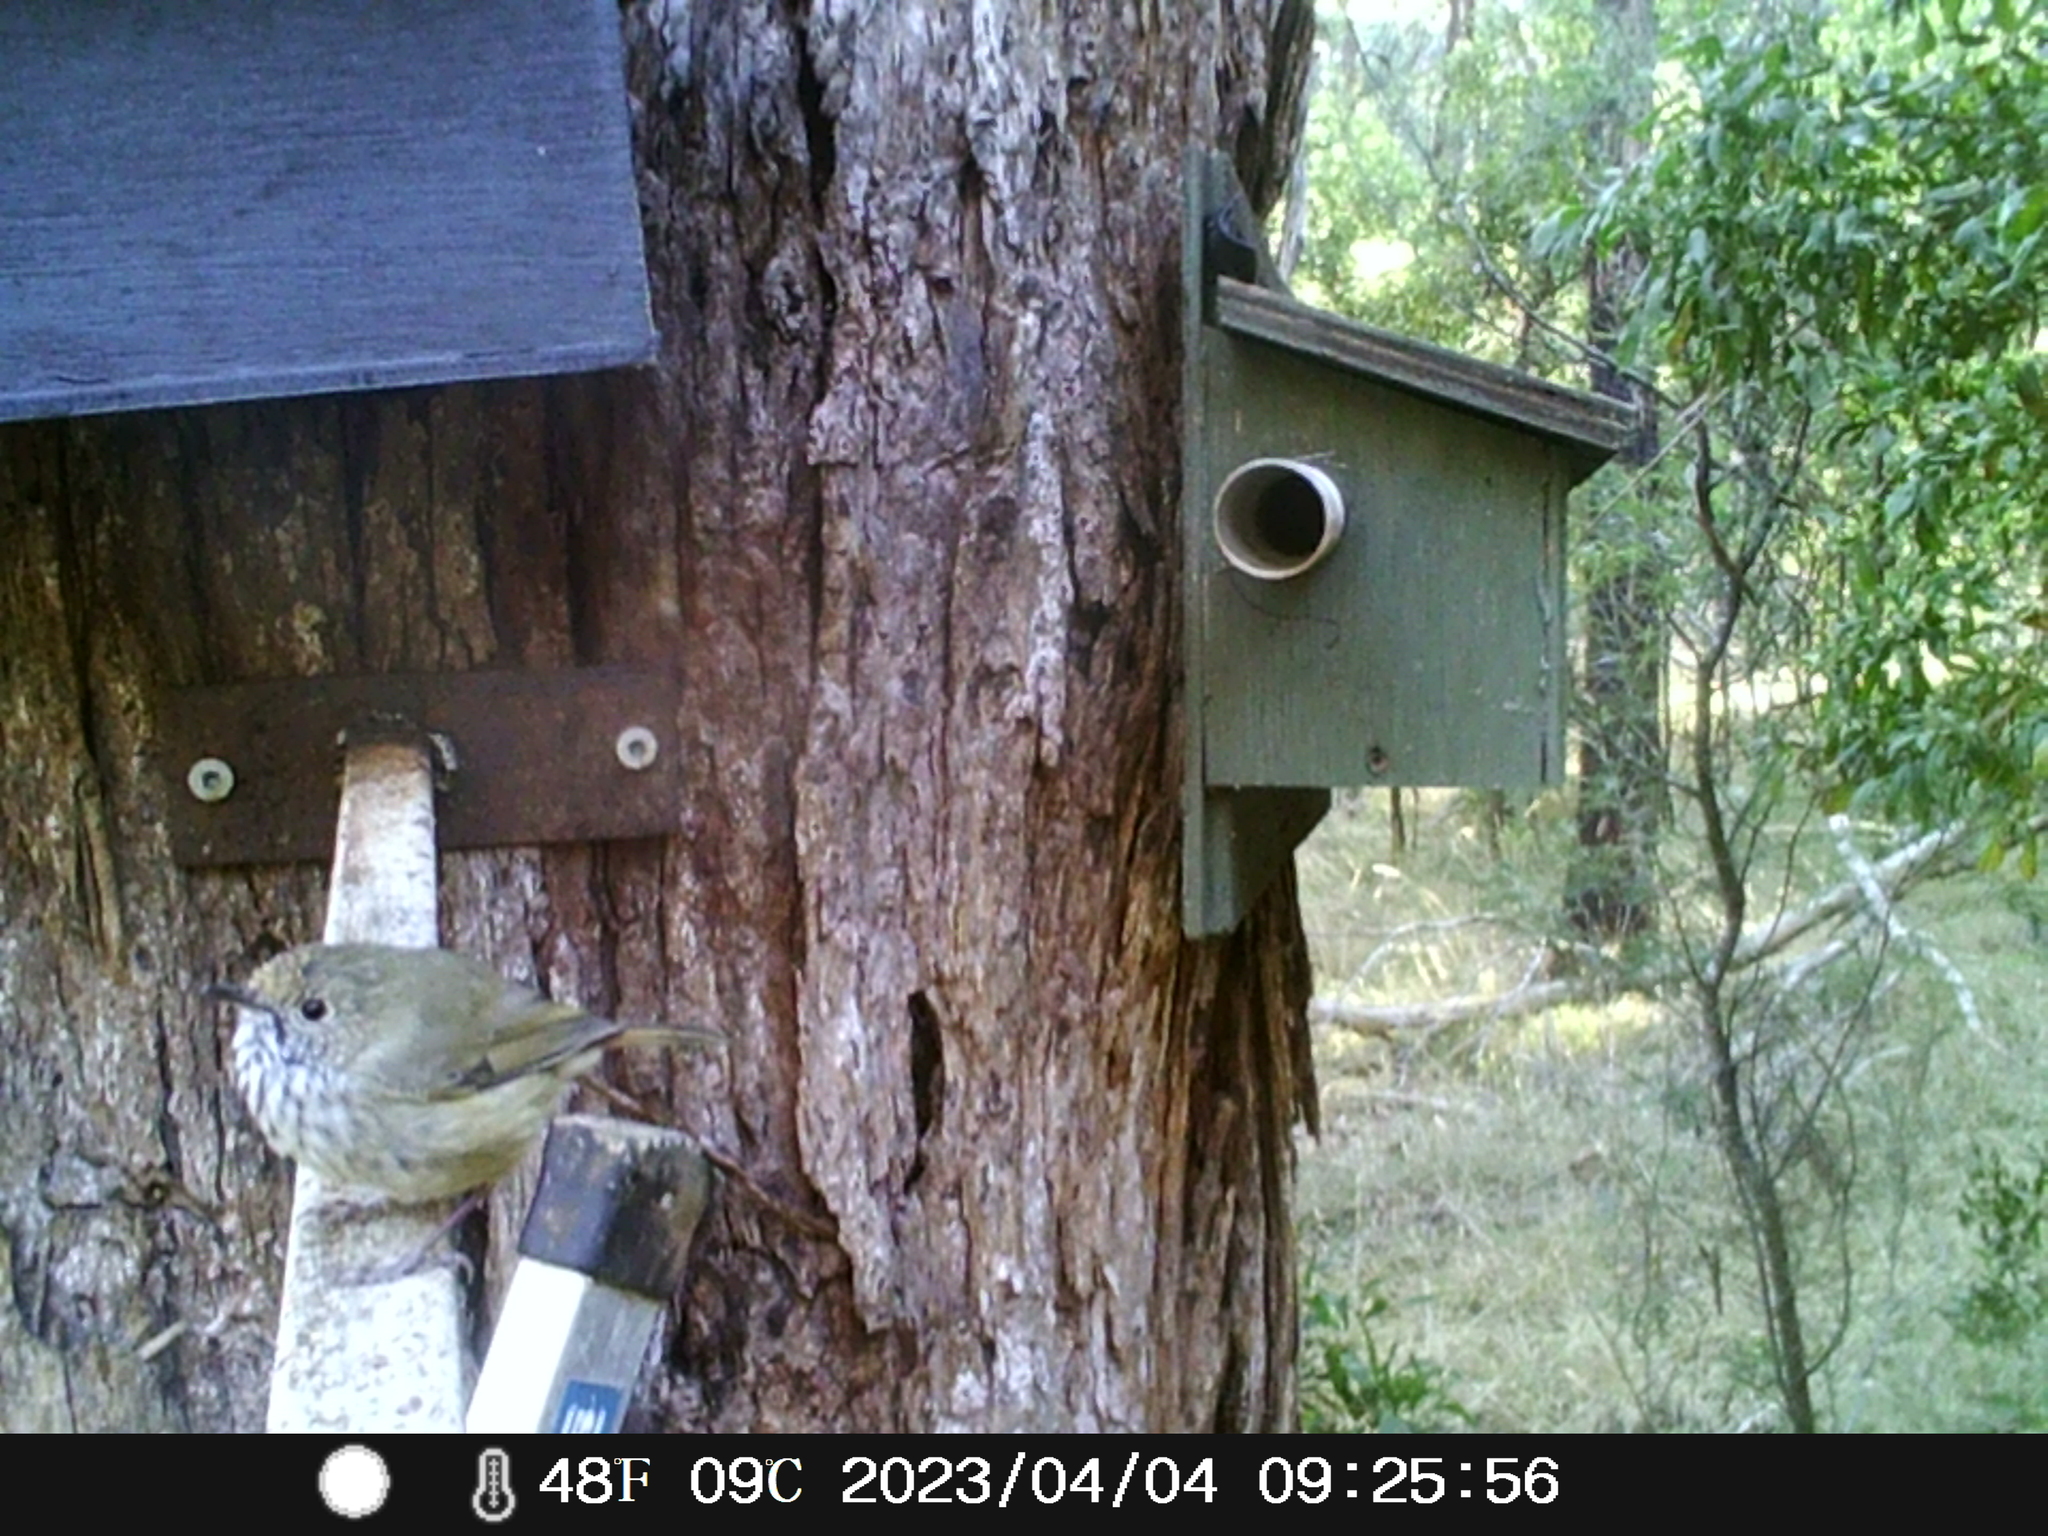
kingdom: Animalia
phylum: Chordata
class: Aves
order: Passeriformes
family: Acanthizidae
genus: Acanthiza
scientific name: Acanthiza pusilla
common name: Brown thornbill
